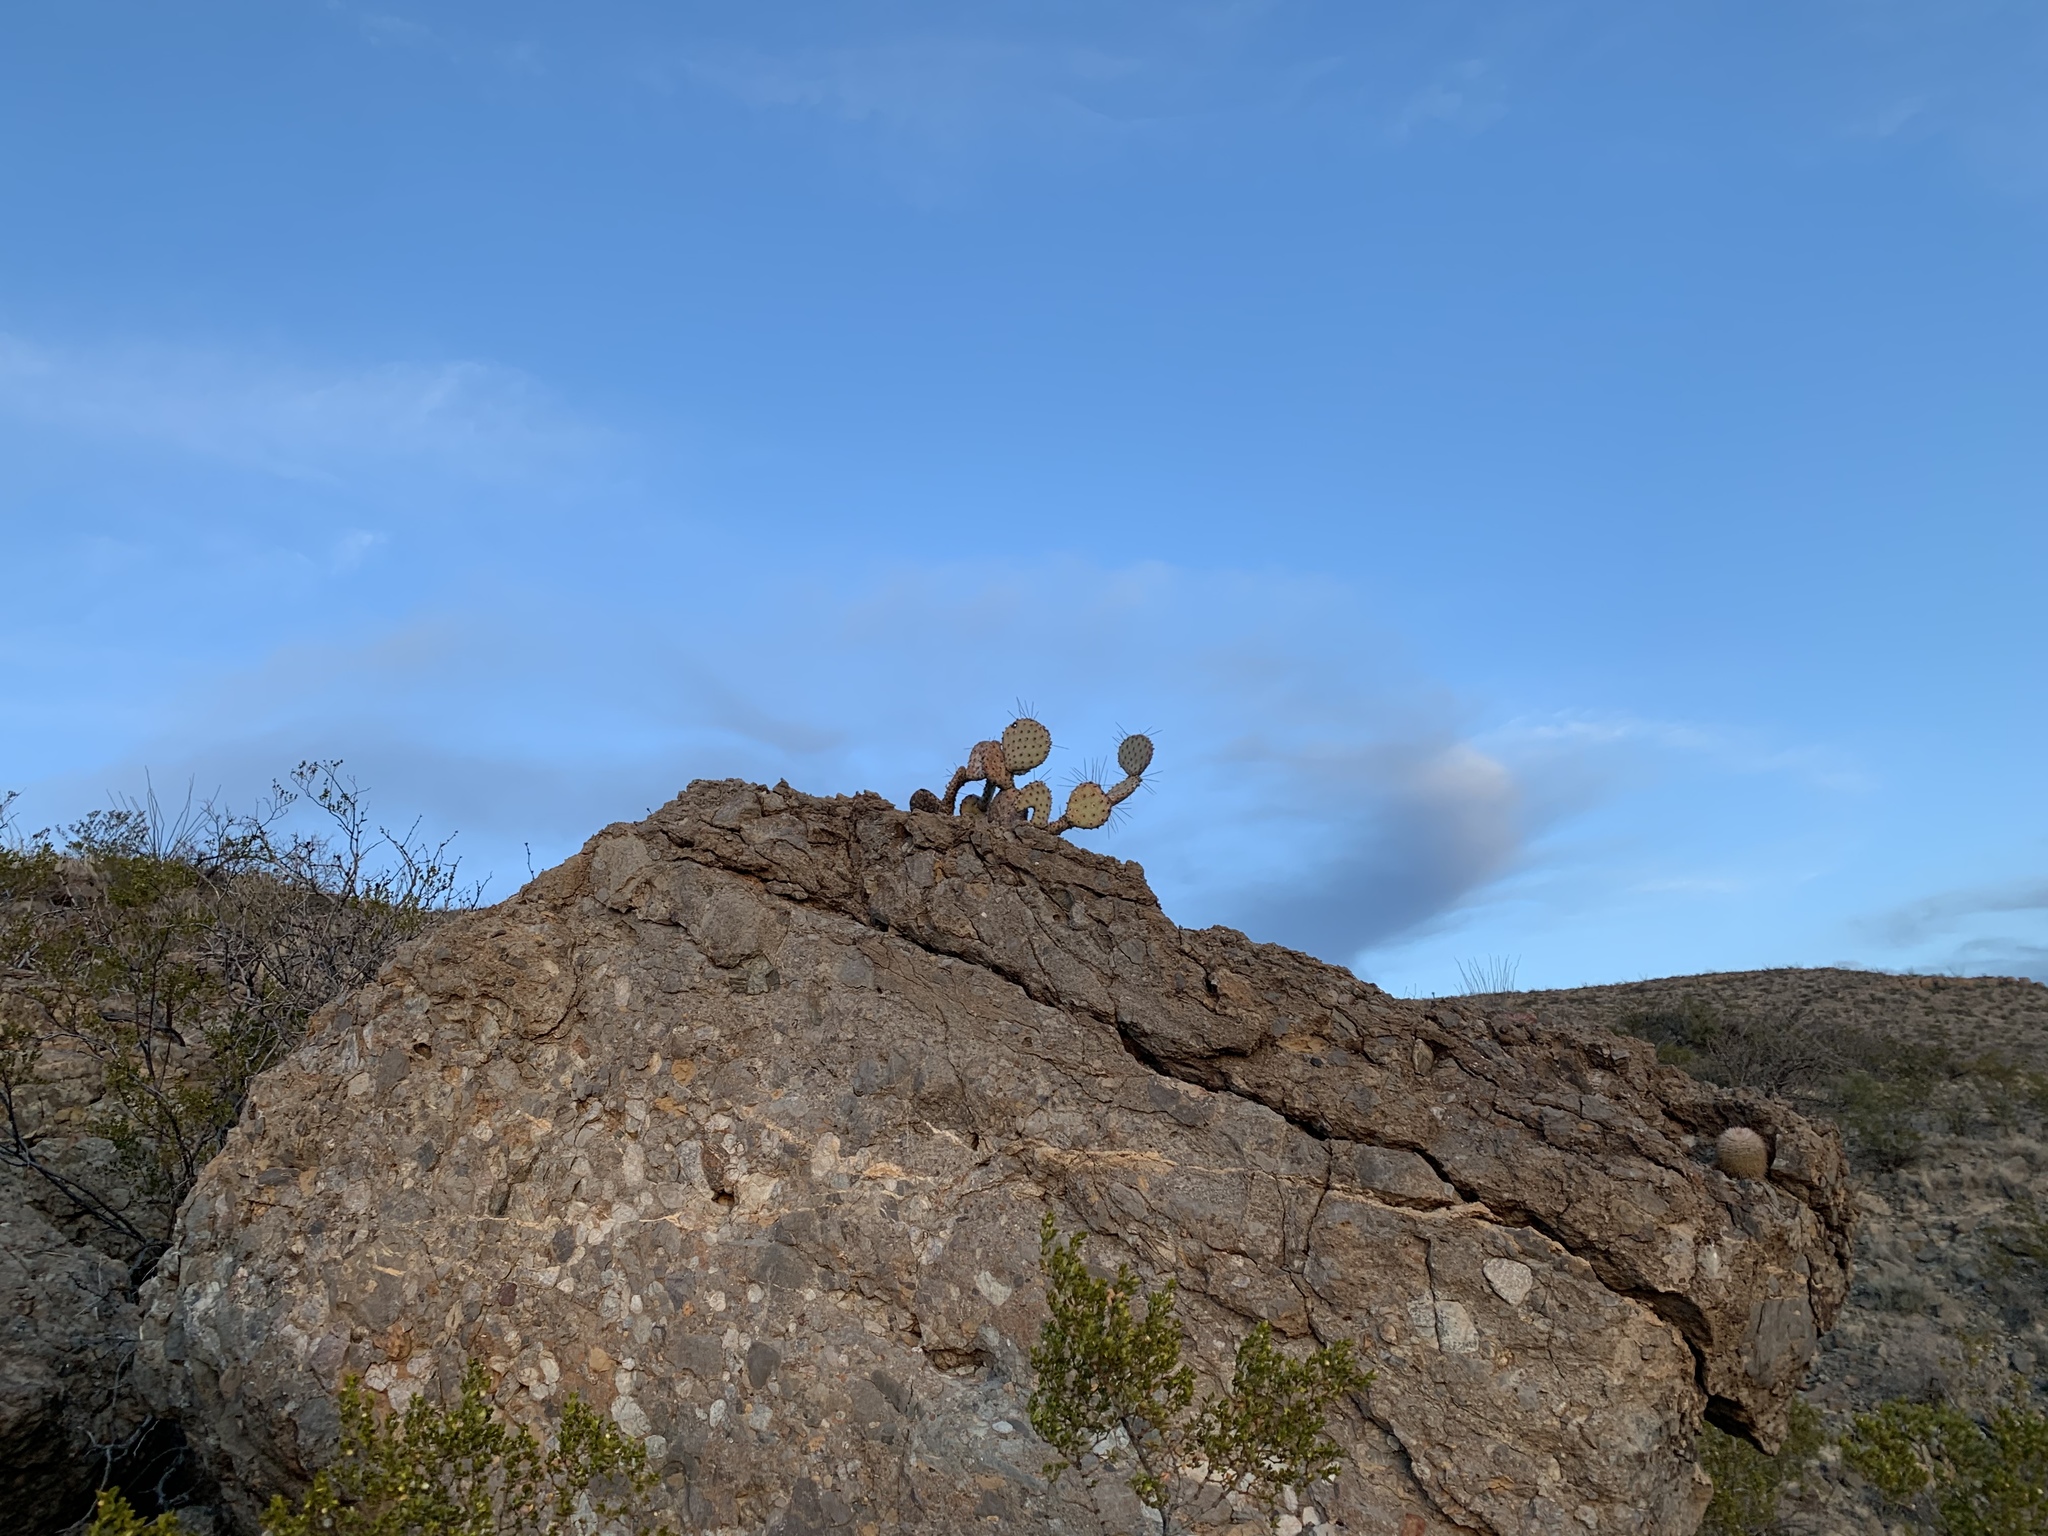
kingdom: Plantae
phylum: Tracheophyta
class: Magnoliopsida
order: Caryophyllales
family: Cactaceae
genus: Opuntia
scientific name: Opuntia macrocentra
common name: Purple prickly-pear
